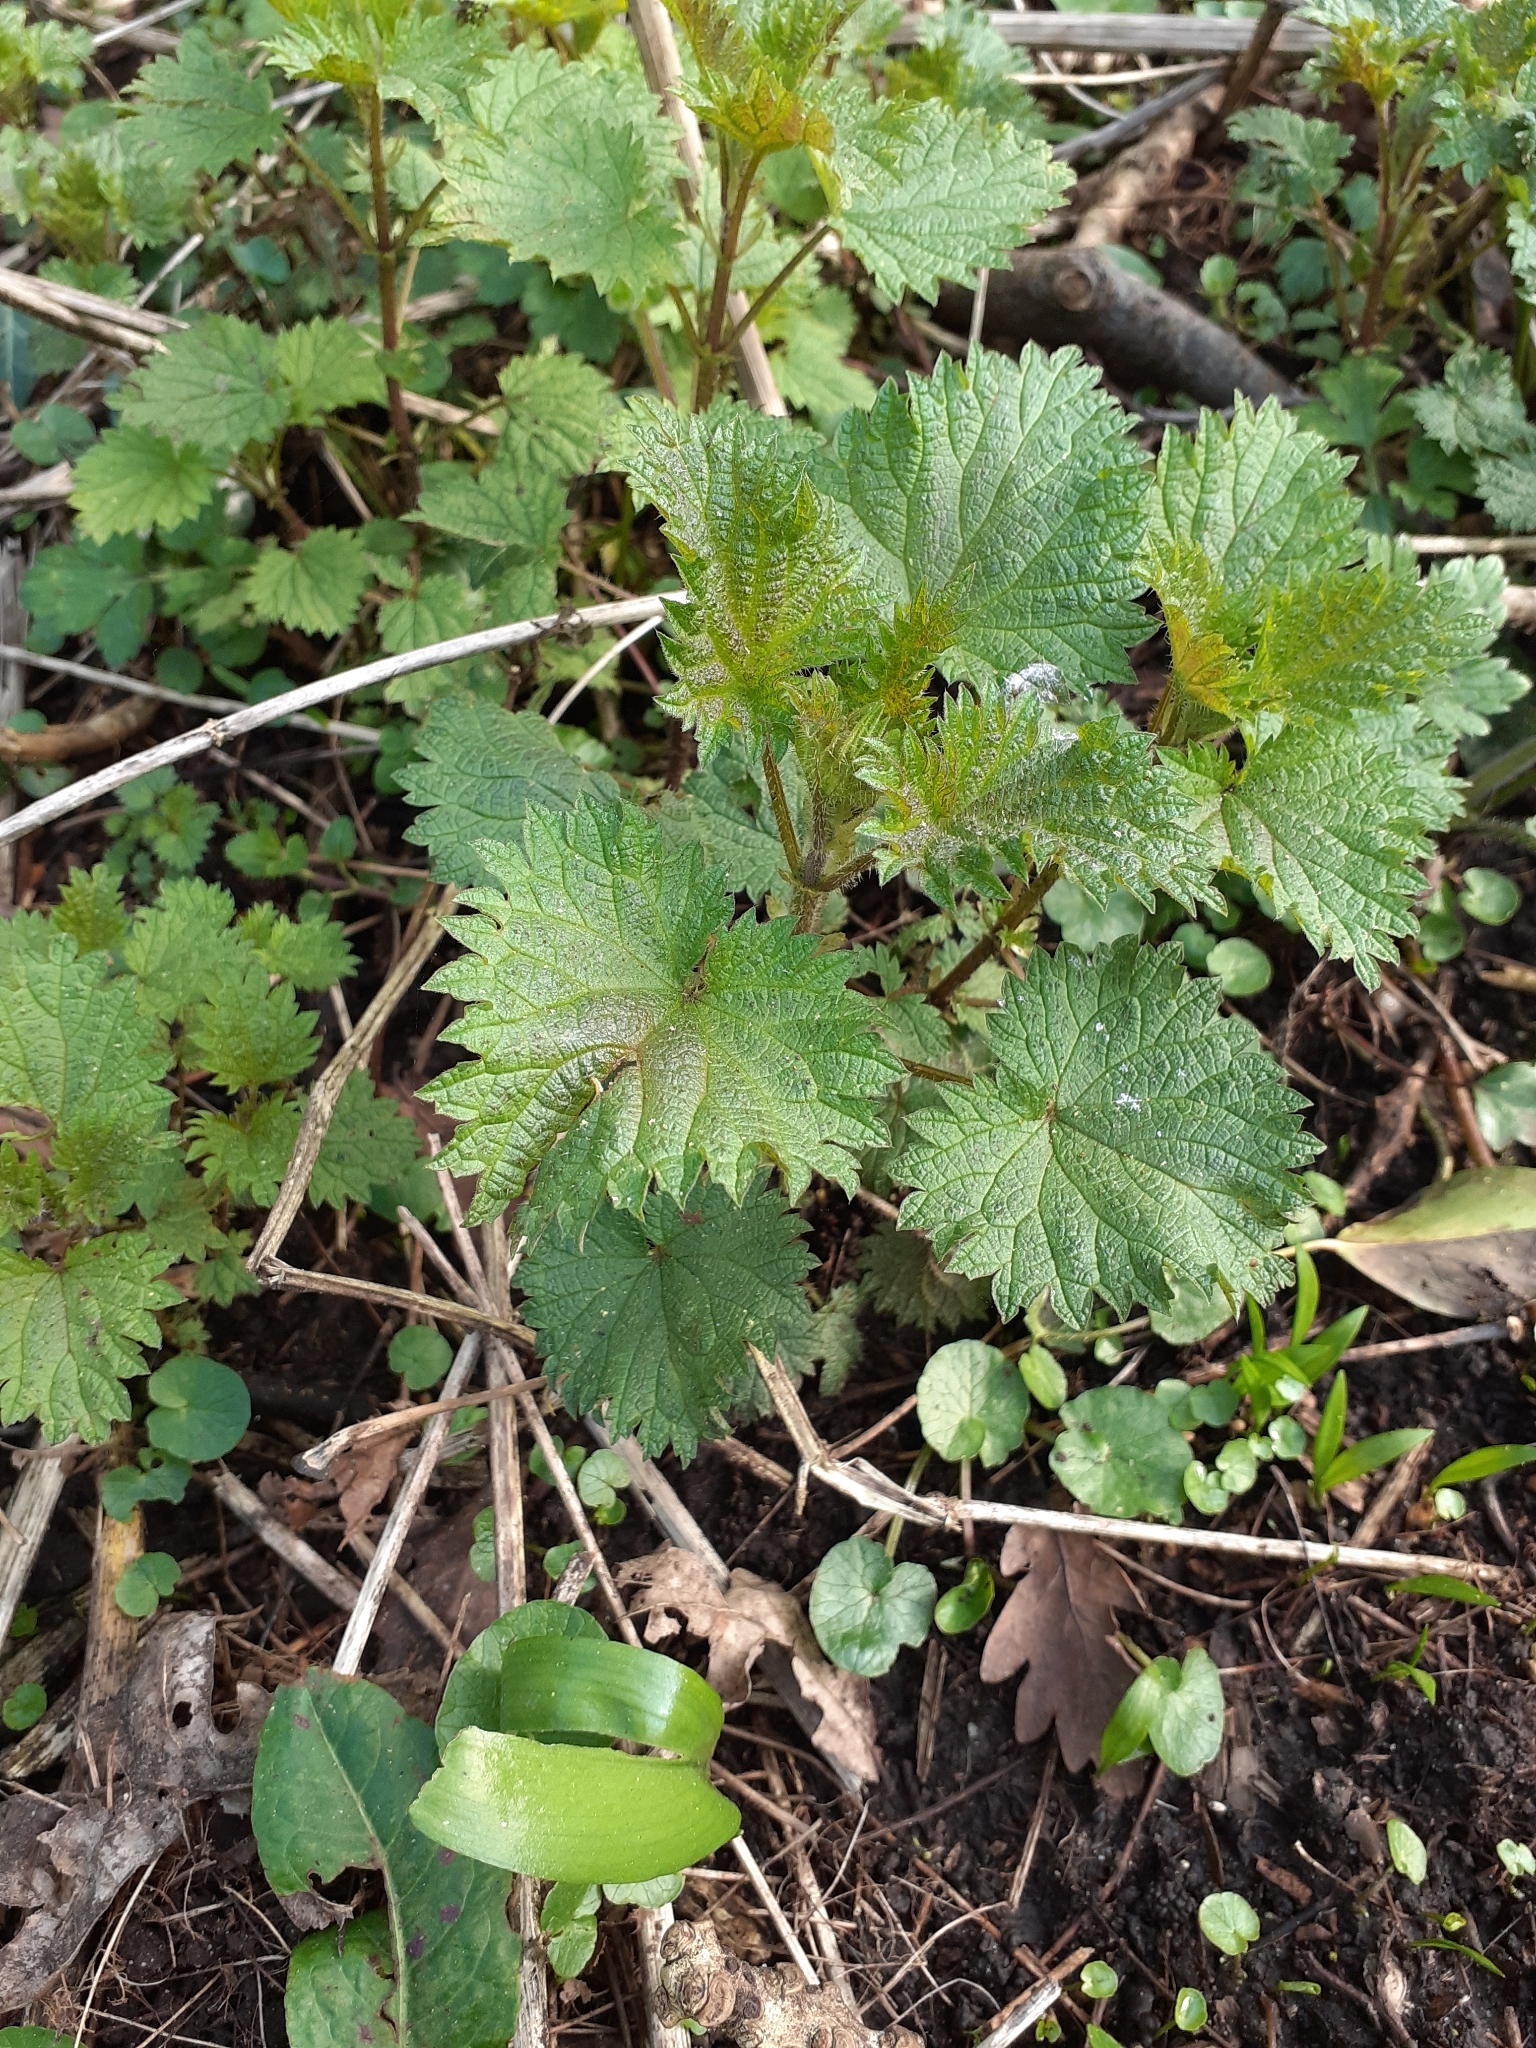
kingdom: Plantae
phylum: Tracheophyta
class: Magnoliopsida
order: Rosales
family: Urticaceae
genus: Urtica
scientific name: Urtica dioica
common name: Common nettle
